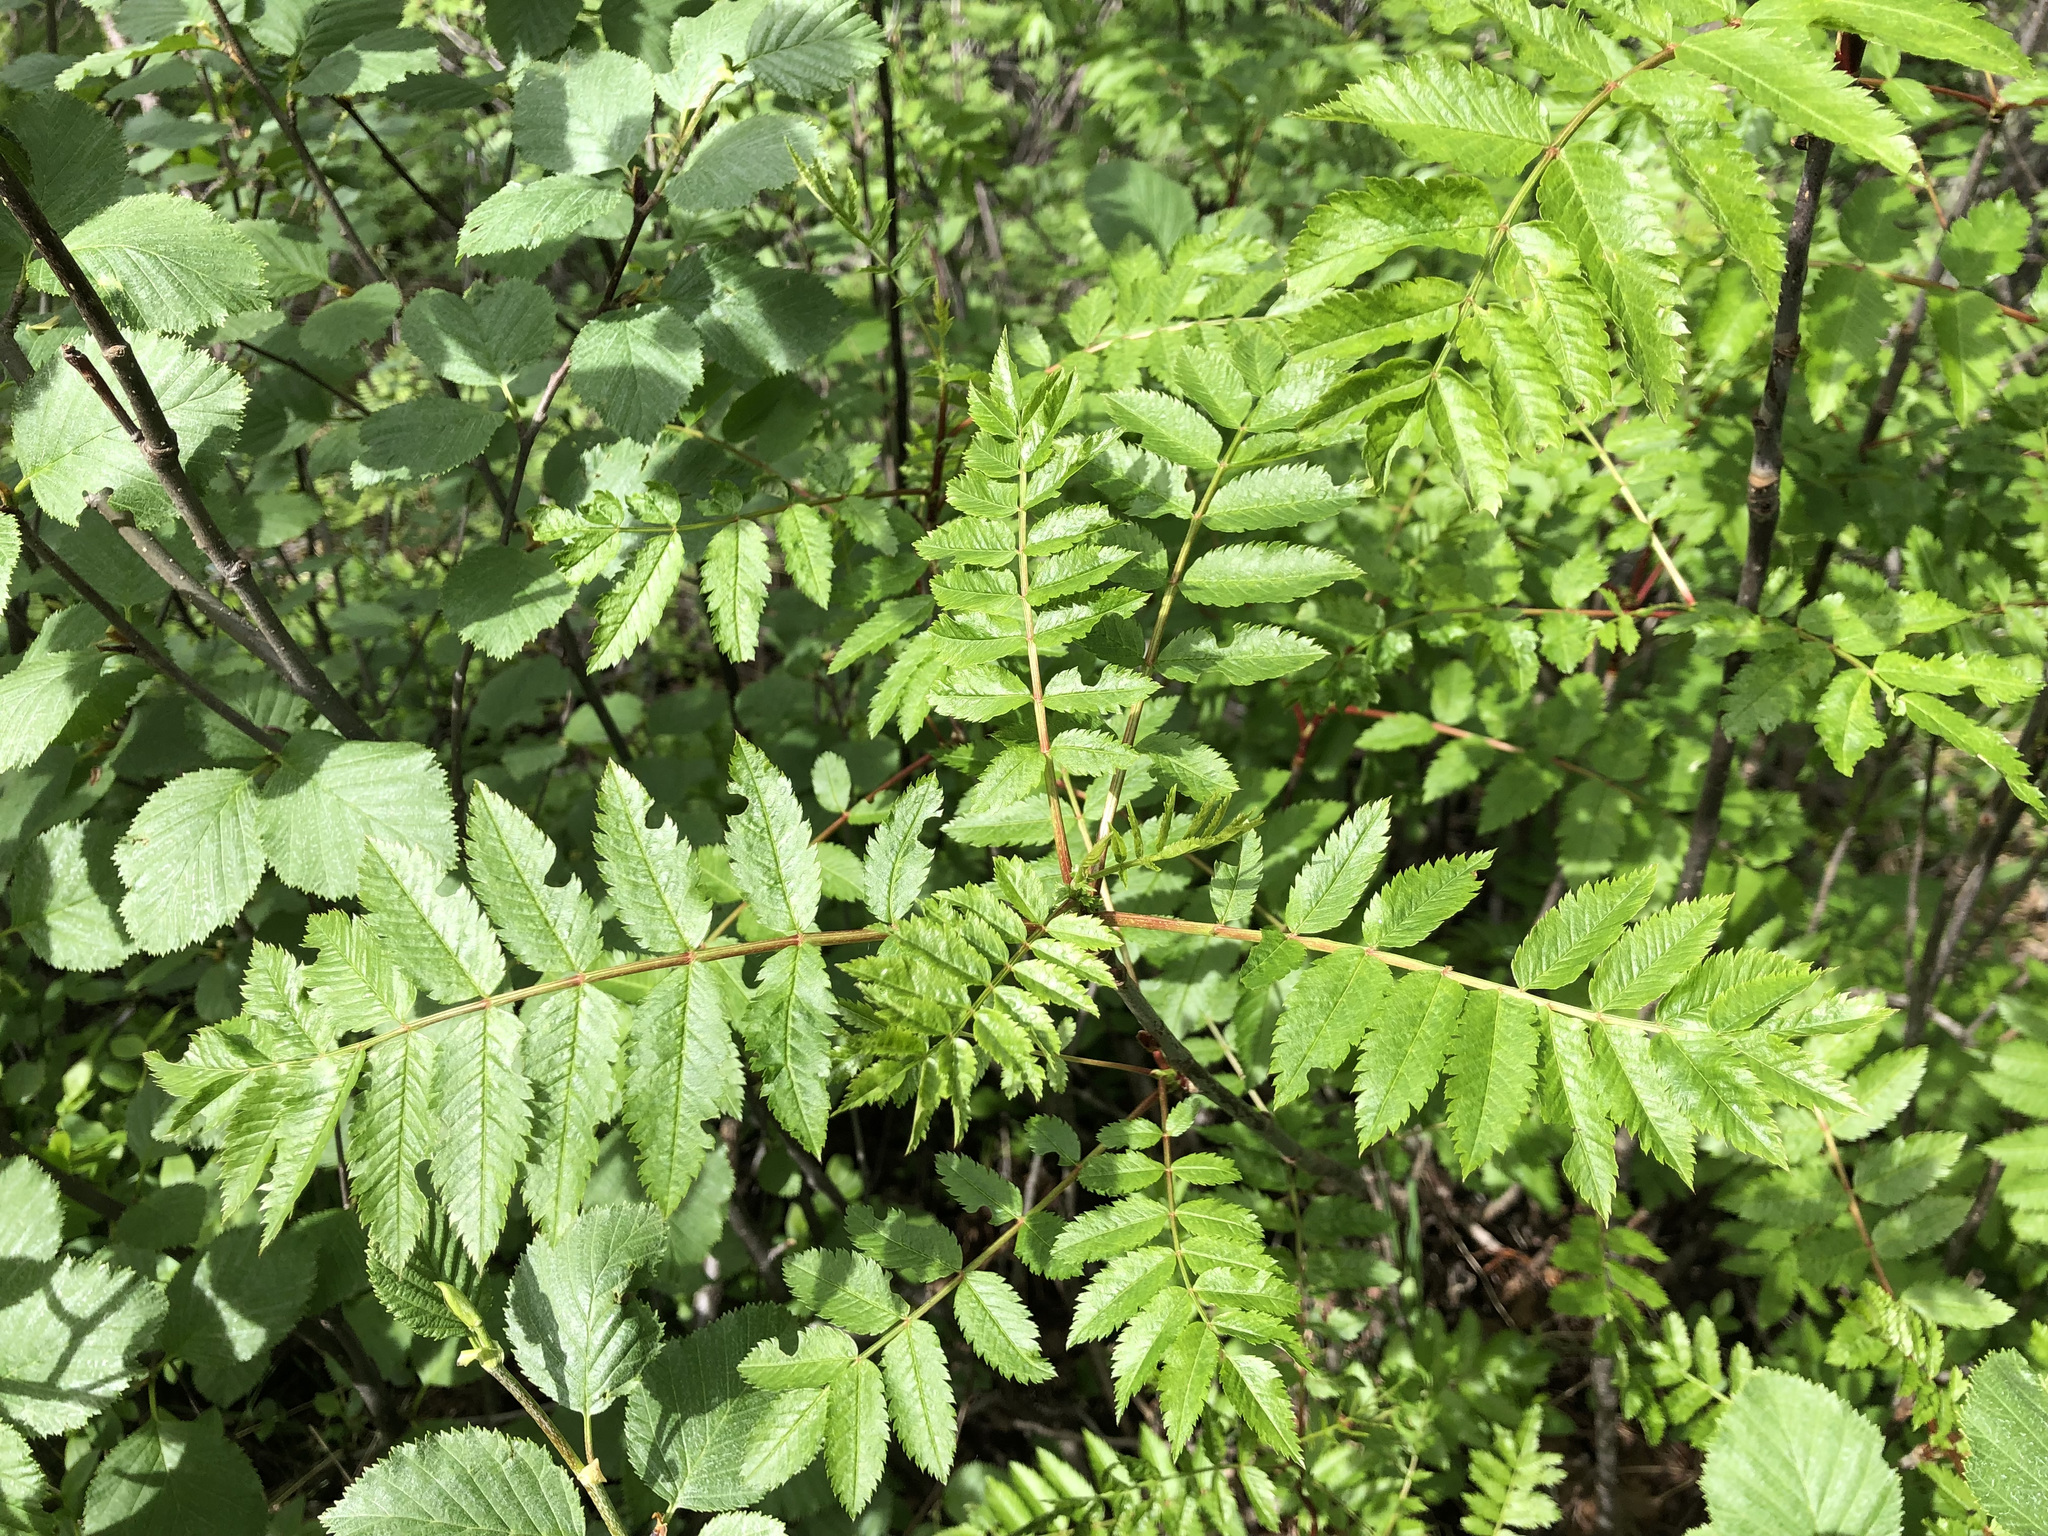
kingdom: Plantae
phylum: Tracheophyta
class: Magnoliopsida
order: Rosales
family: Rosaceae
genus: Sorbus
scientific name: Sorbus aucuparia
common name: Rowan
